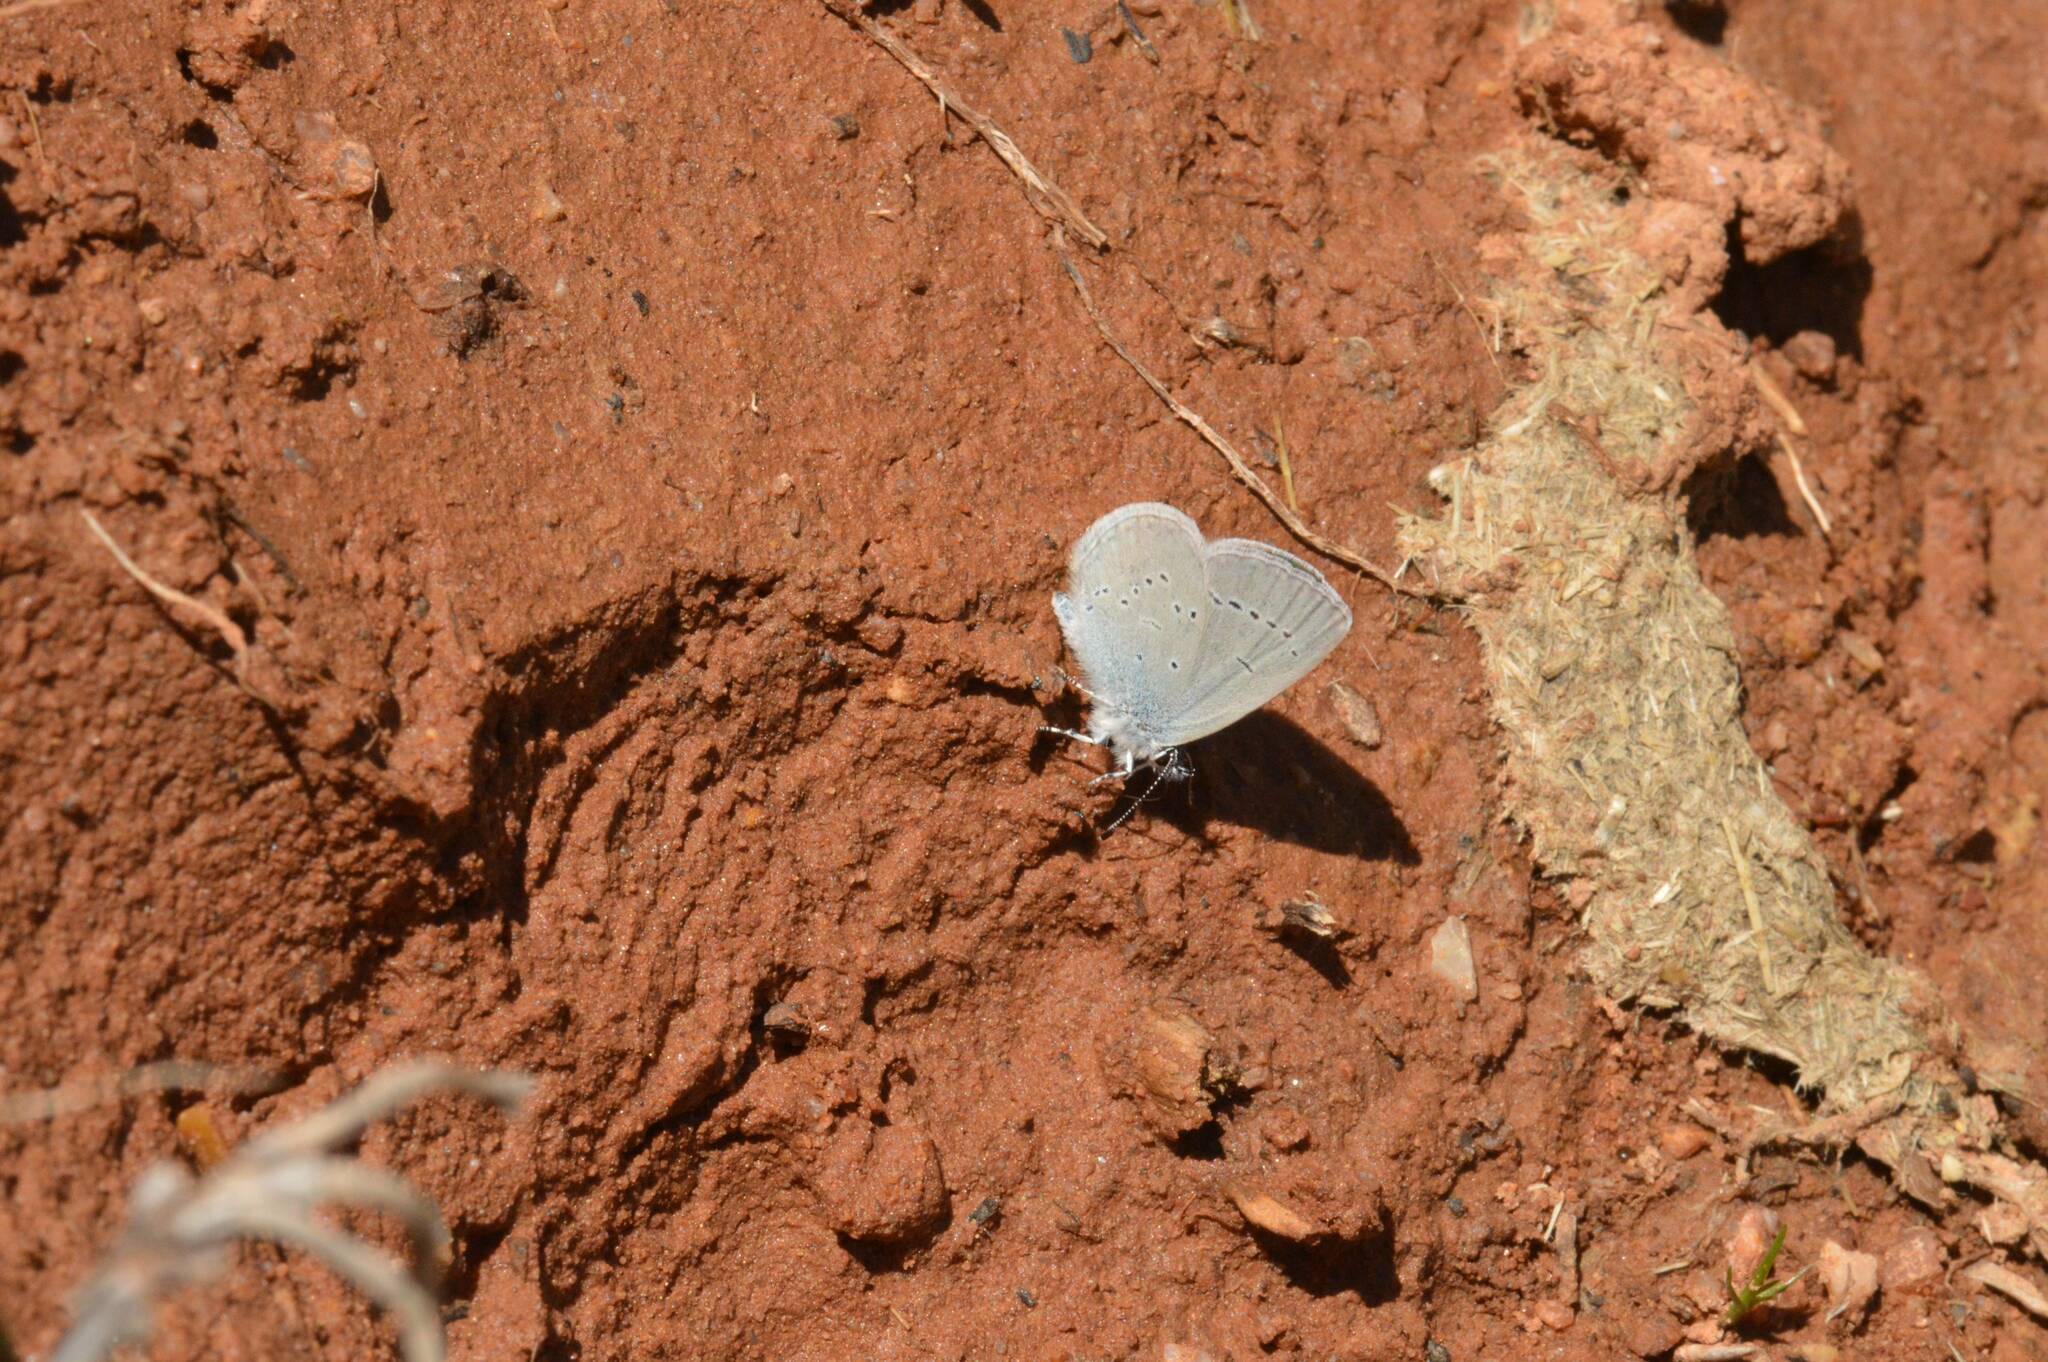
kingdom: Animalia
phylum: Arthropoda
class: Insecta
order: Lepidoptera
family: Lycaenidae
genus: Celastrina
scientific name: Celastrina argiolus
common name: Holly blue
